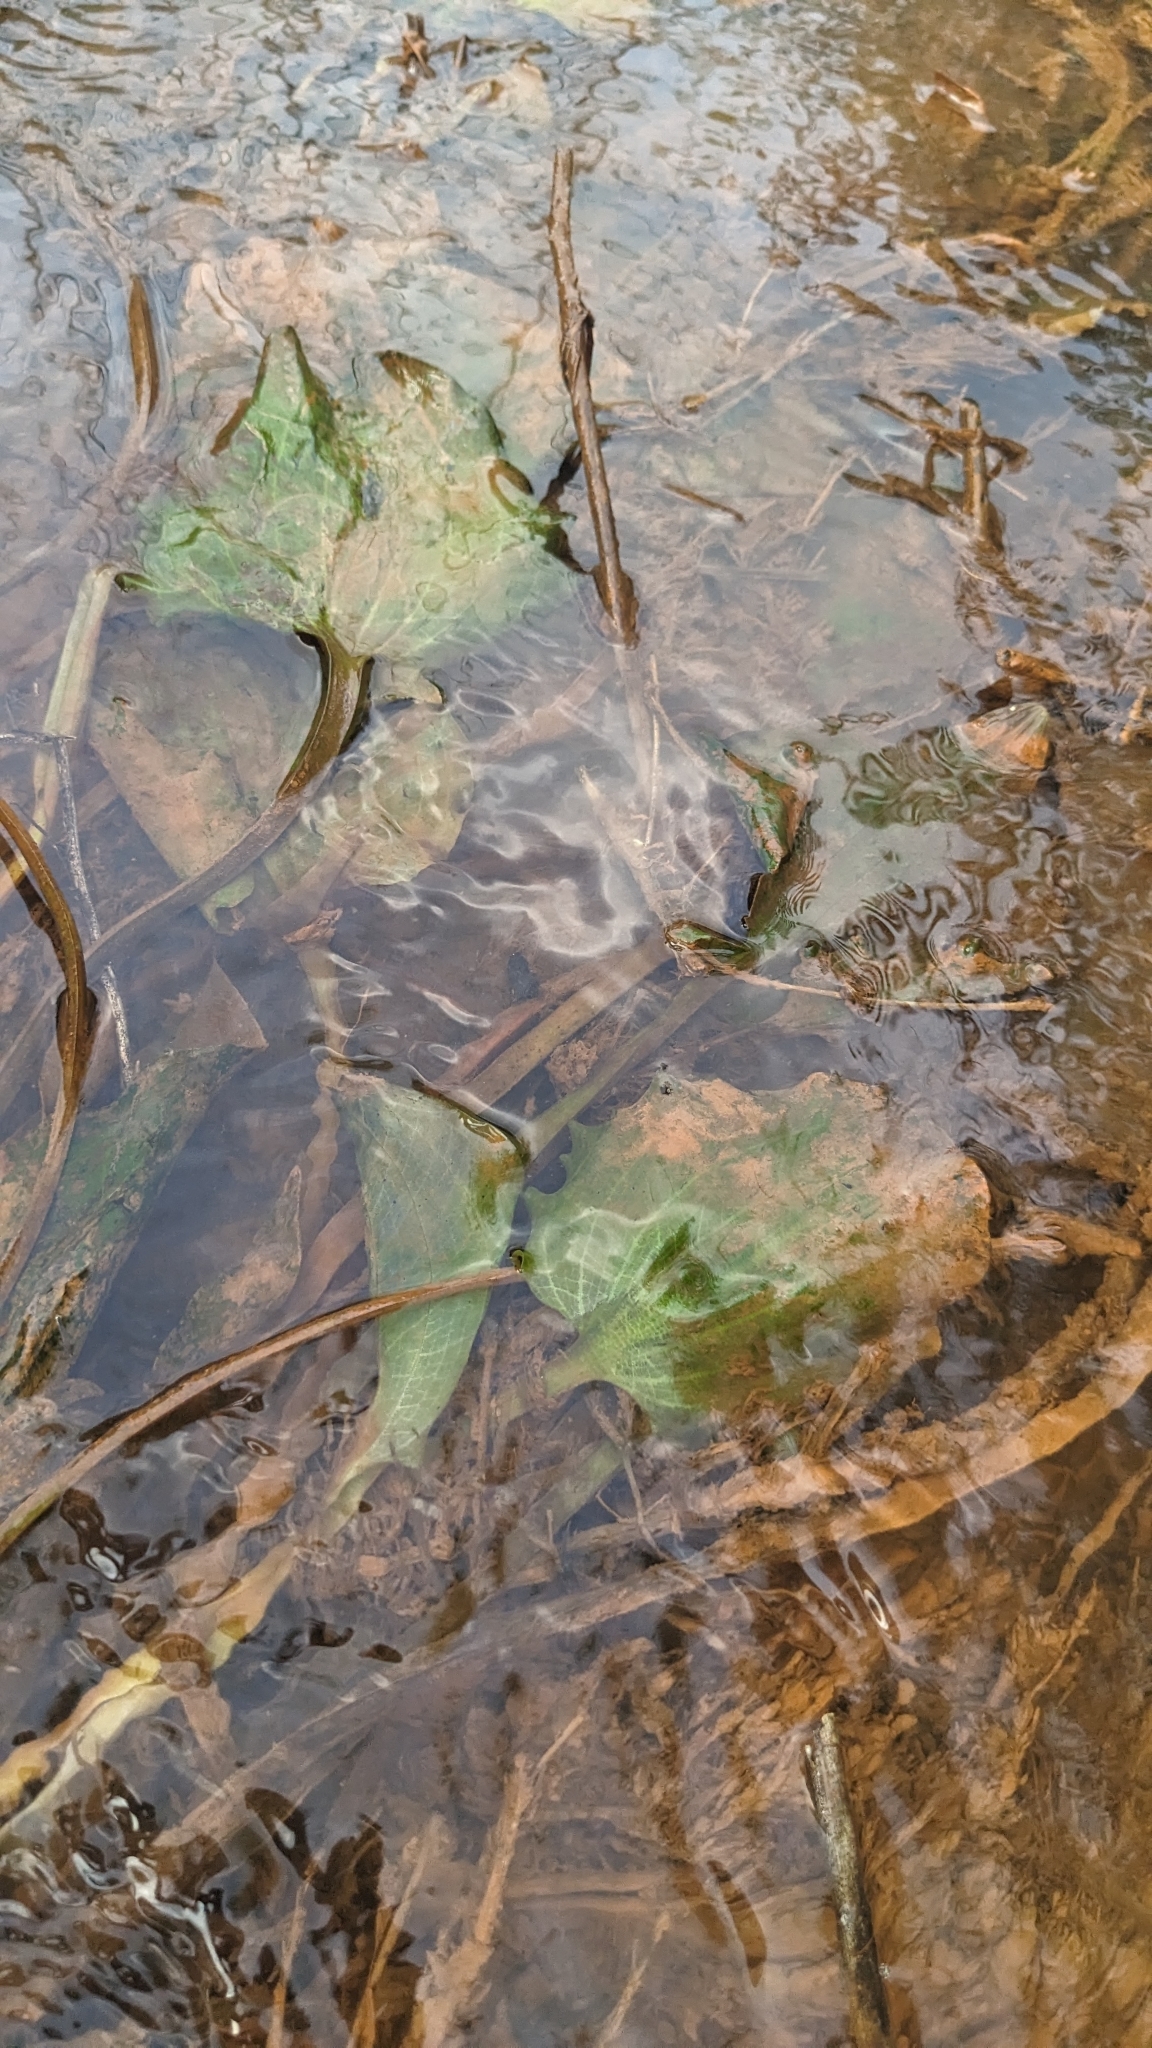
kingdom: Plantae
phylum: Tracheophyta
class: Liliopsida
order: Alismatales
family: Hydrocharitaceae
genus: Ottelia
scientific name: Ottelia alismoides
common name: Duck-lettuce
